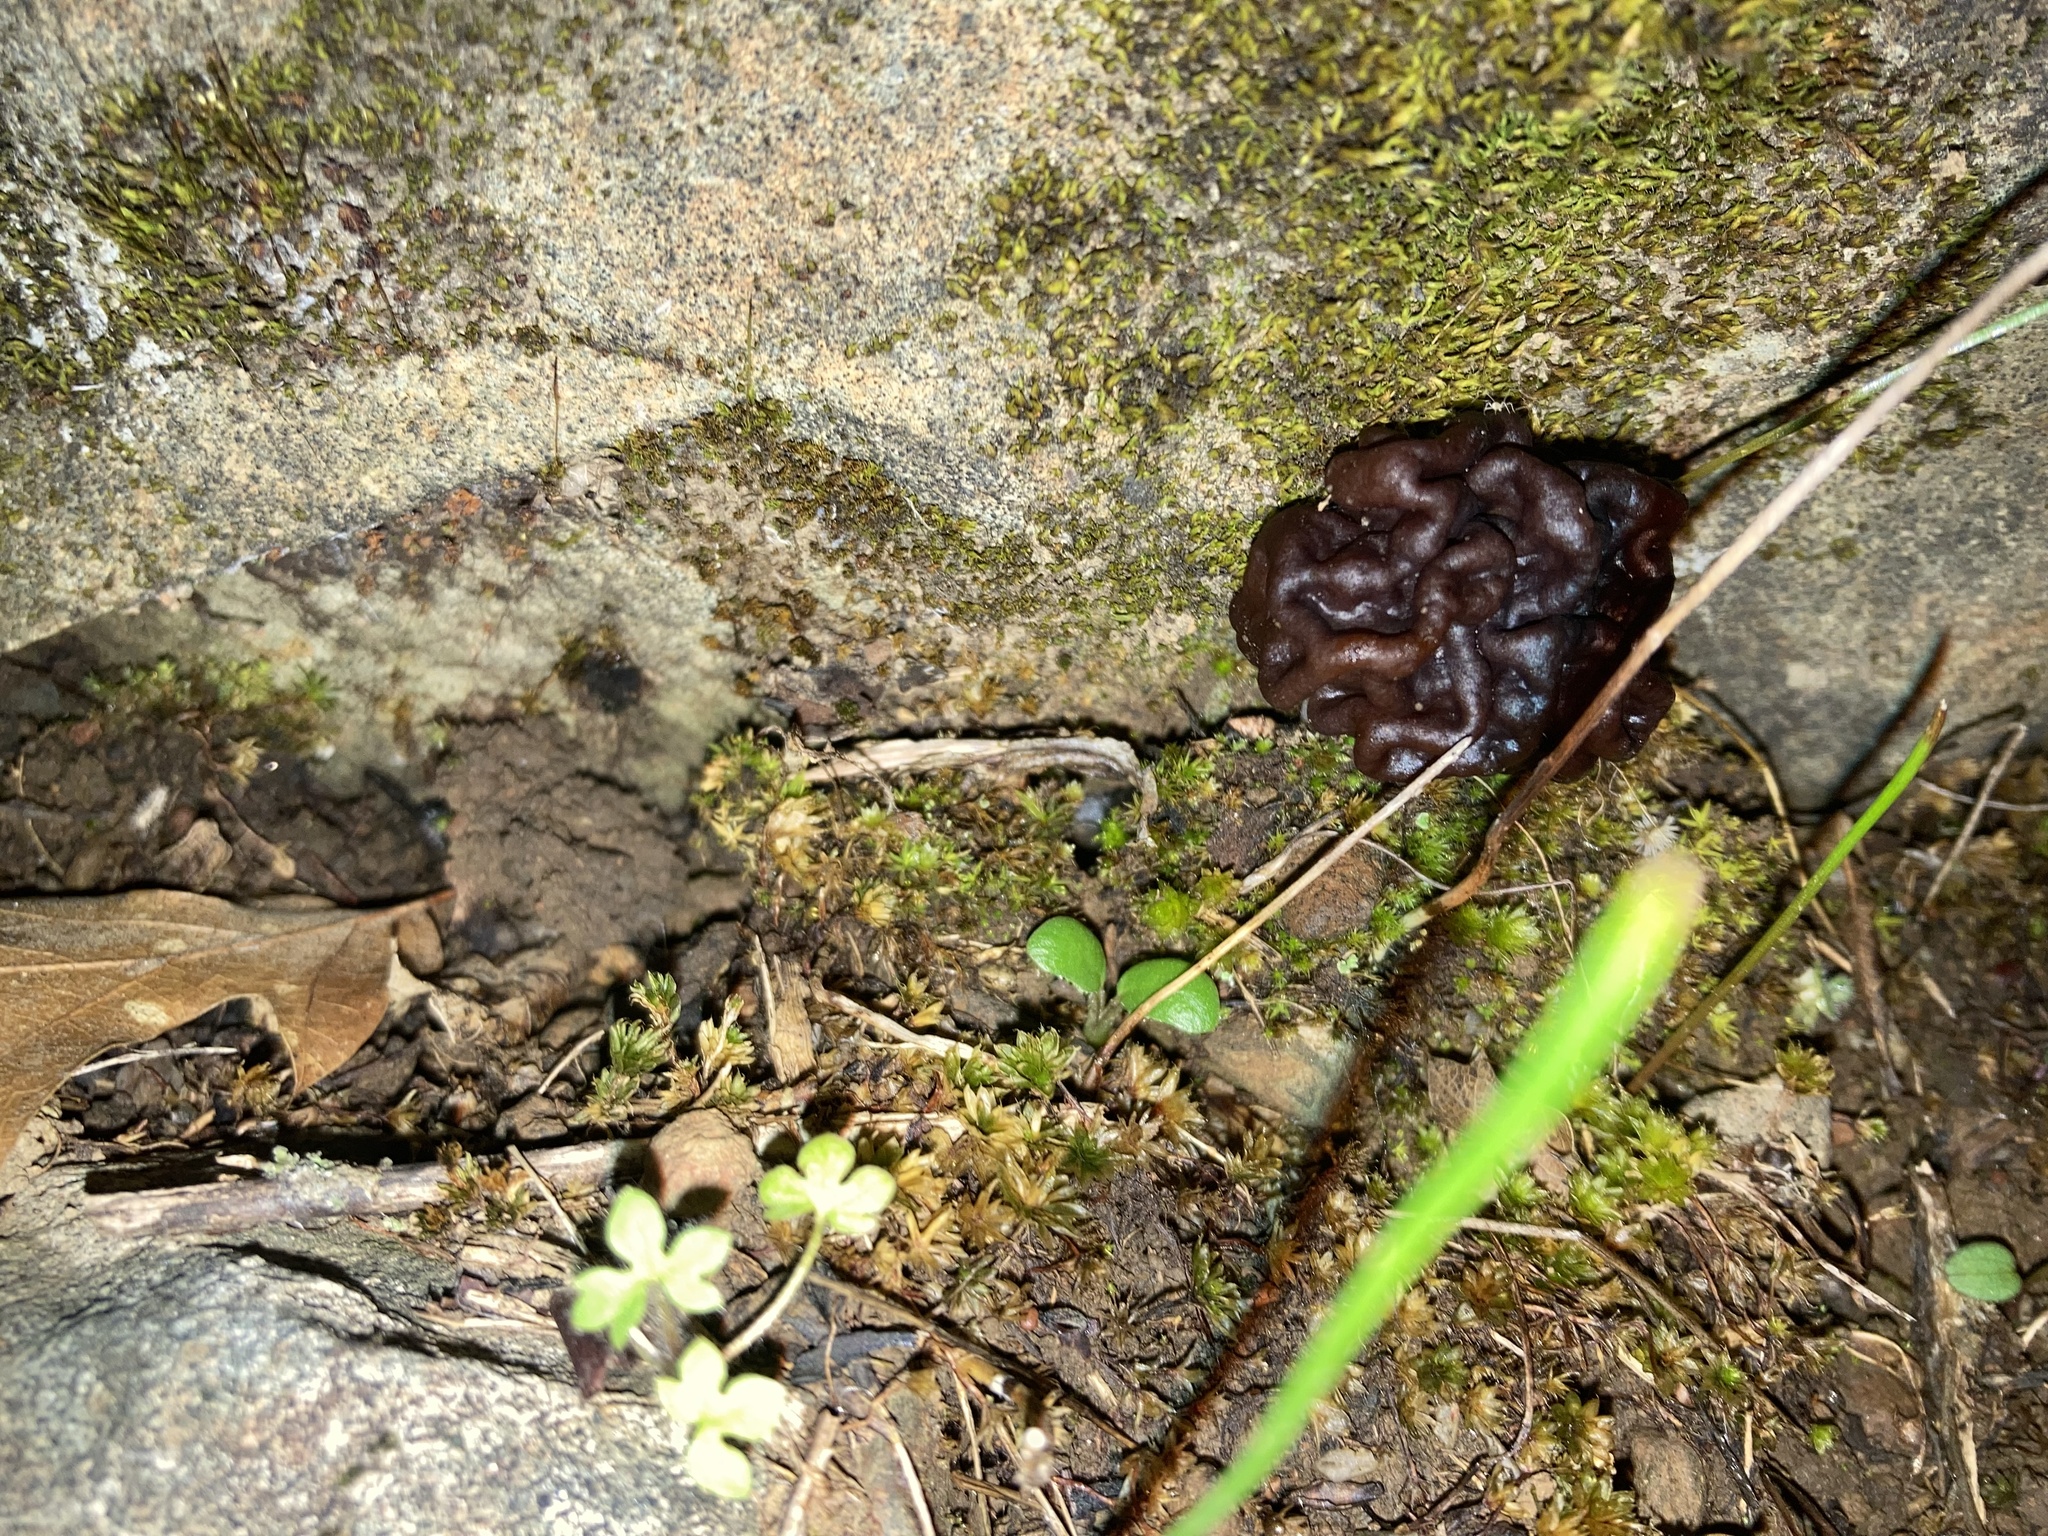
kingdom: Fungi
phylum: Ascomycota
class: Pezizomycetes
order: Pezizales
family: Discinaceae
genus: Gyromitra
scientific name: Gyromitra esculenta
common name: False morel
